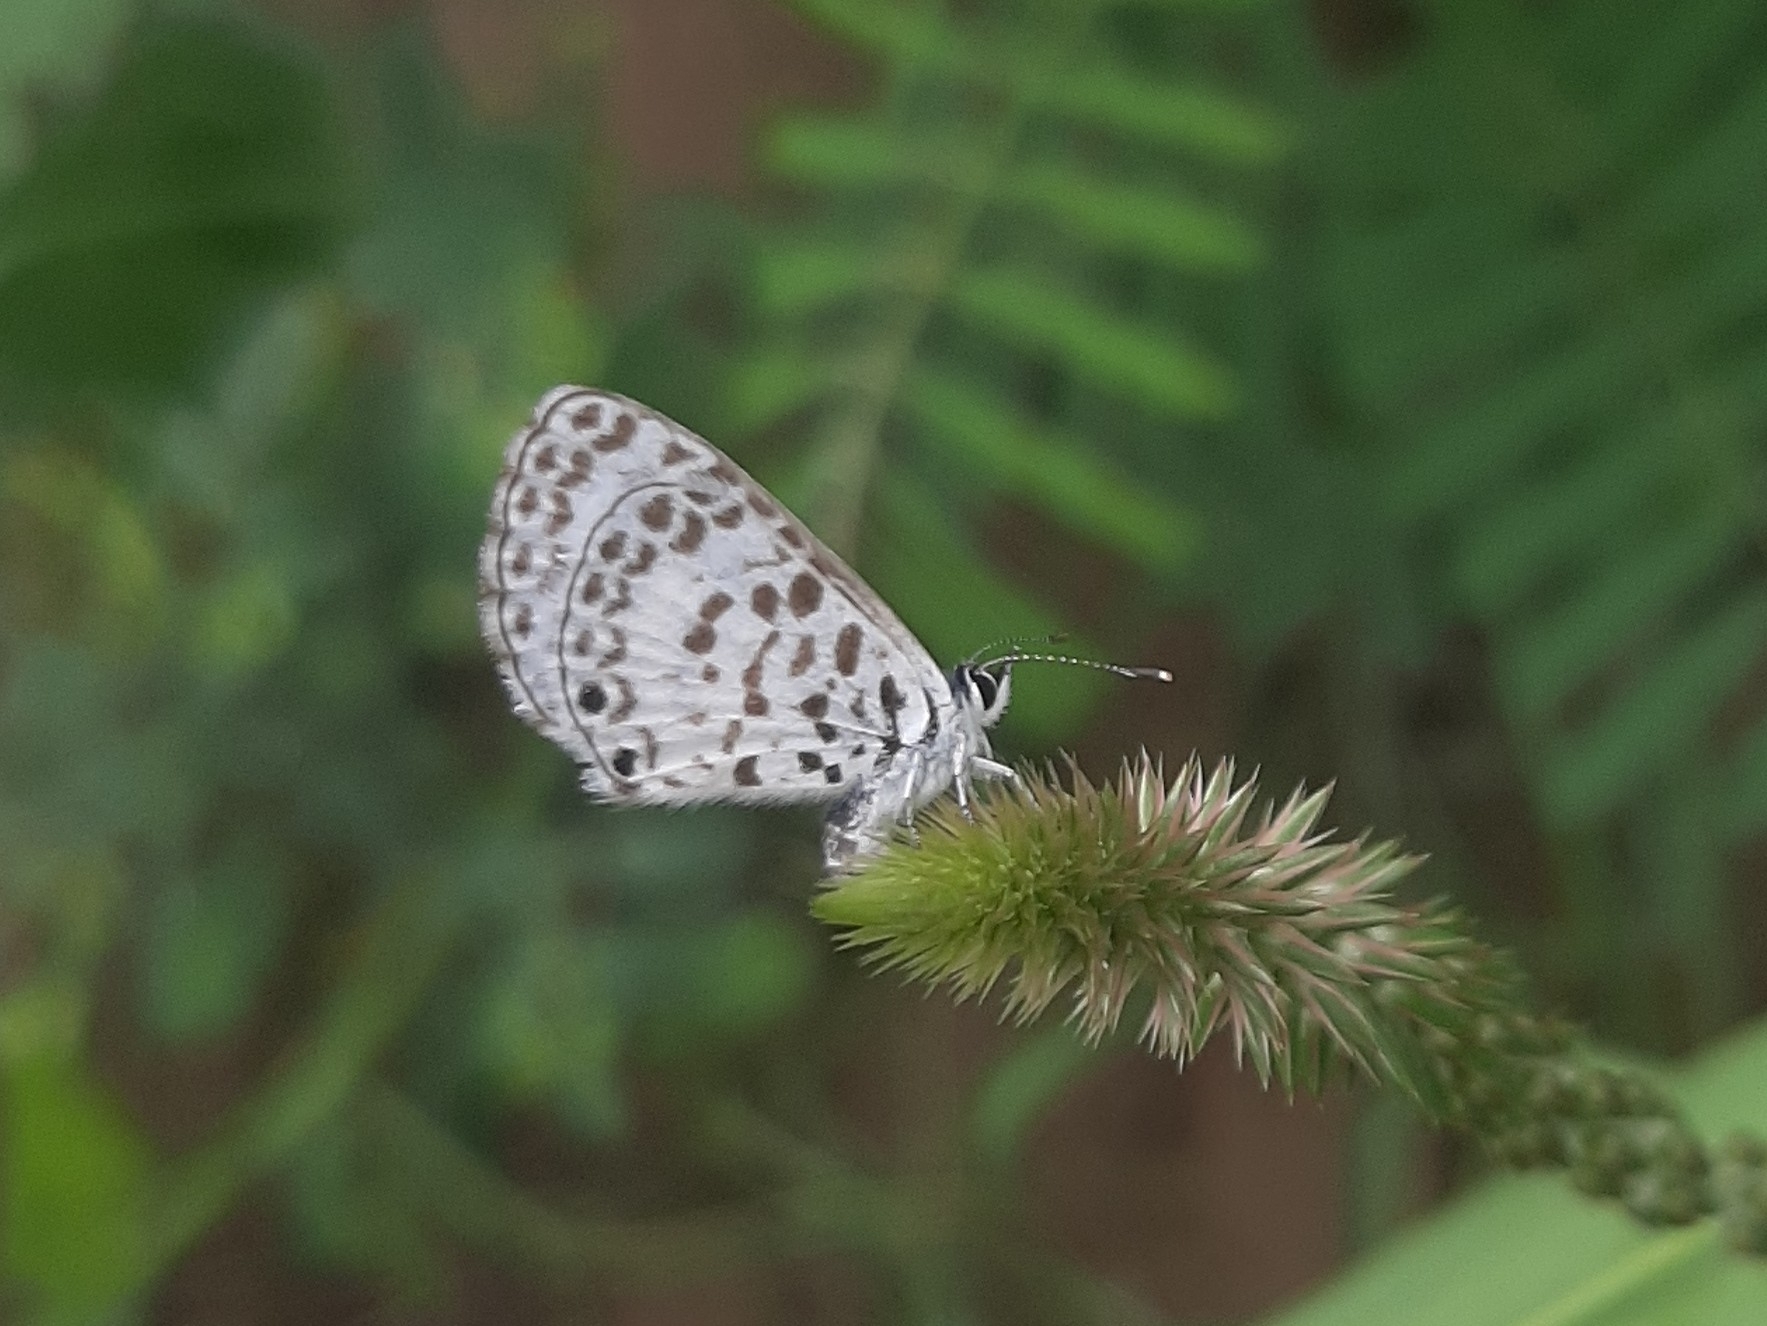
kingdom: Animalia
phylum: Arthropoda
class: Insecta
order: Lepidoptera
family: Lycaenidae
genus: Leptotes
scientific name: Leptotes cassius
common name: Cassius blue
